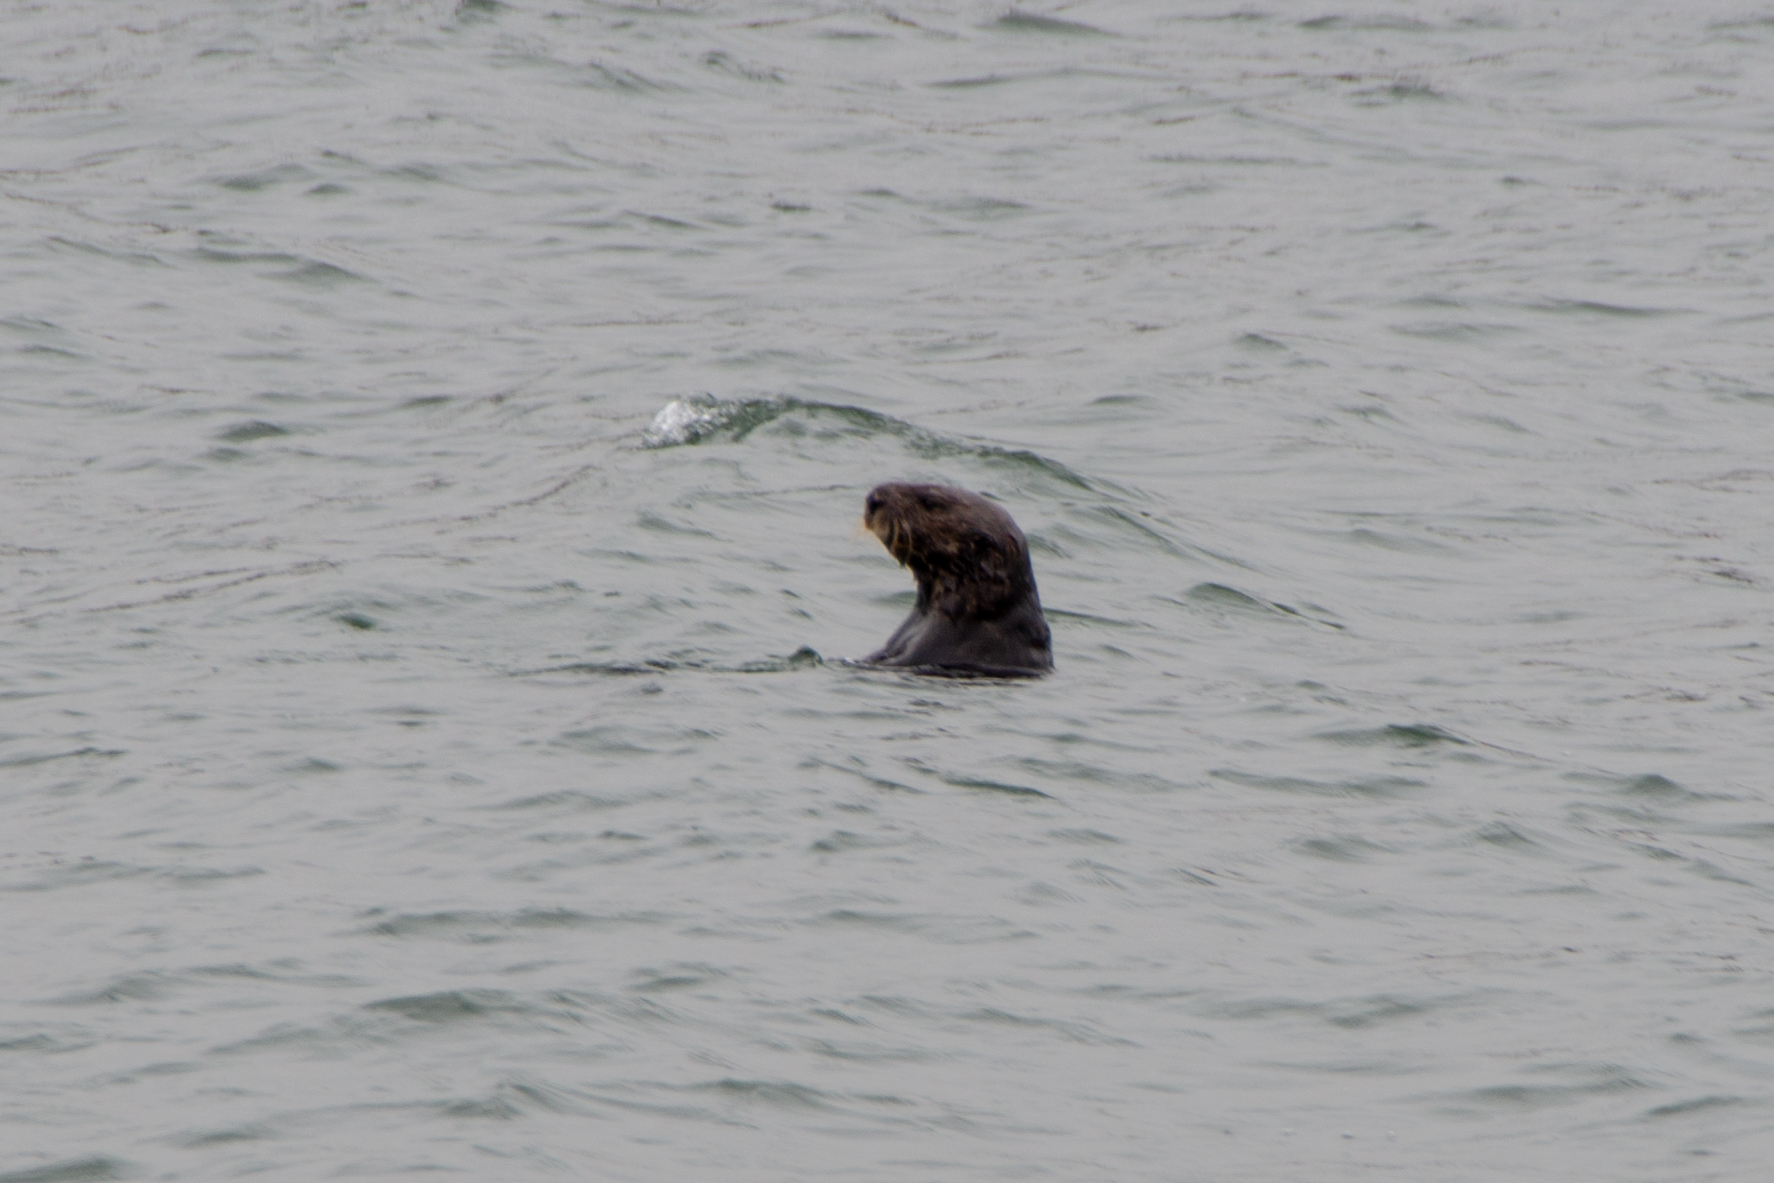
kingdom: Animalia
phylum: Chordata
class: Mammalia
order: Carnivora
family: Mustelidae
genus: Enhydra
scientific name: Enhydra lutris
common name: Sea otter
